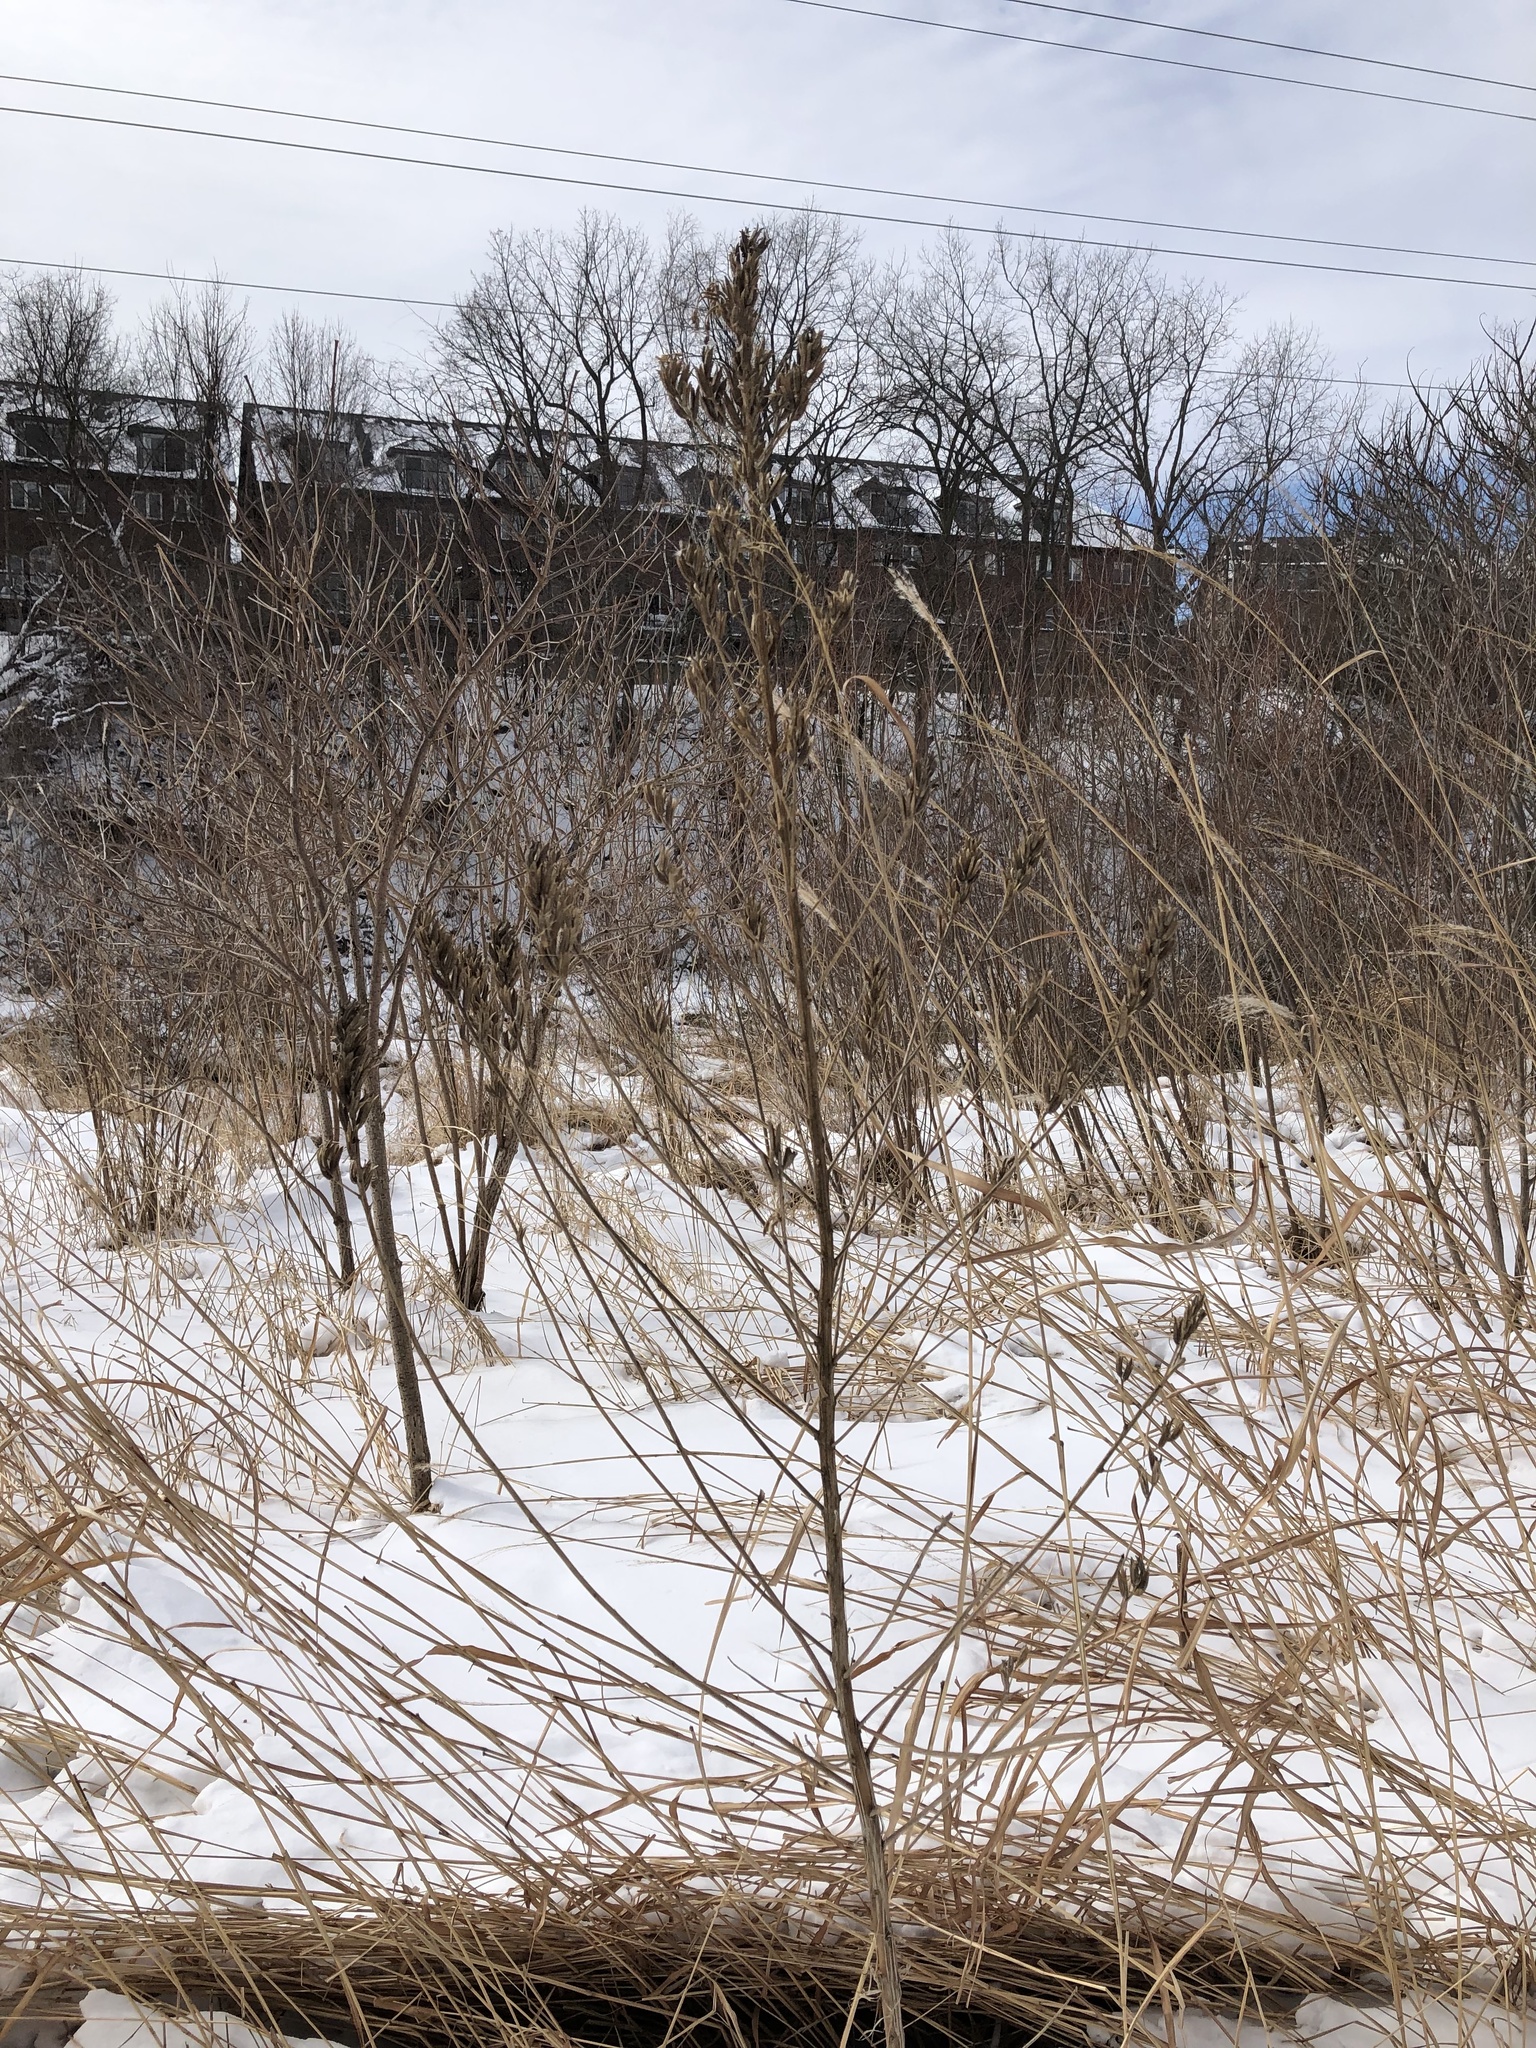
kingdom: Plantae
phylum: Tracheophyta
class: Magnoliopsida
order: Myrtales
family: Onagraceae
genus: Oenothera
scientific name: Oenothera biennis
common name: Common evening-primrose
